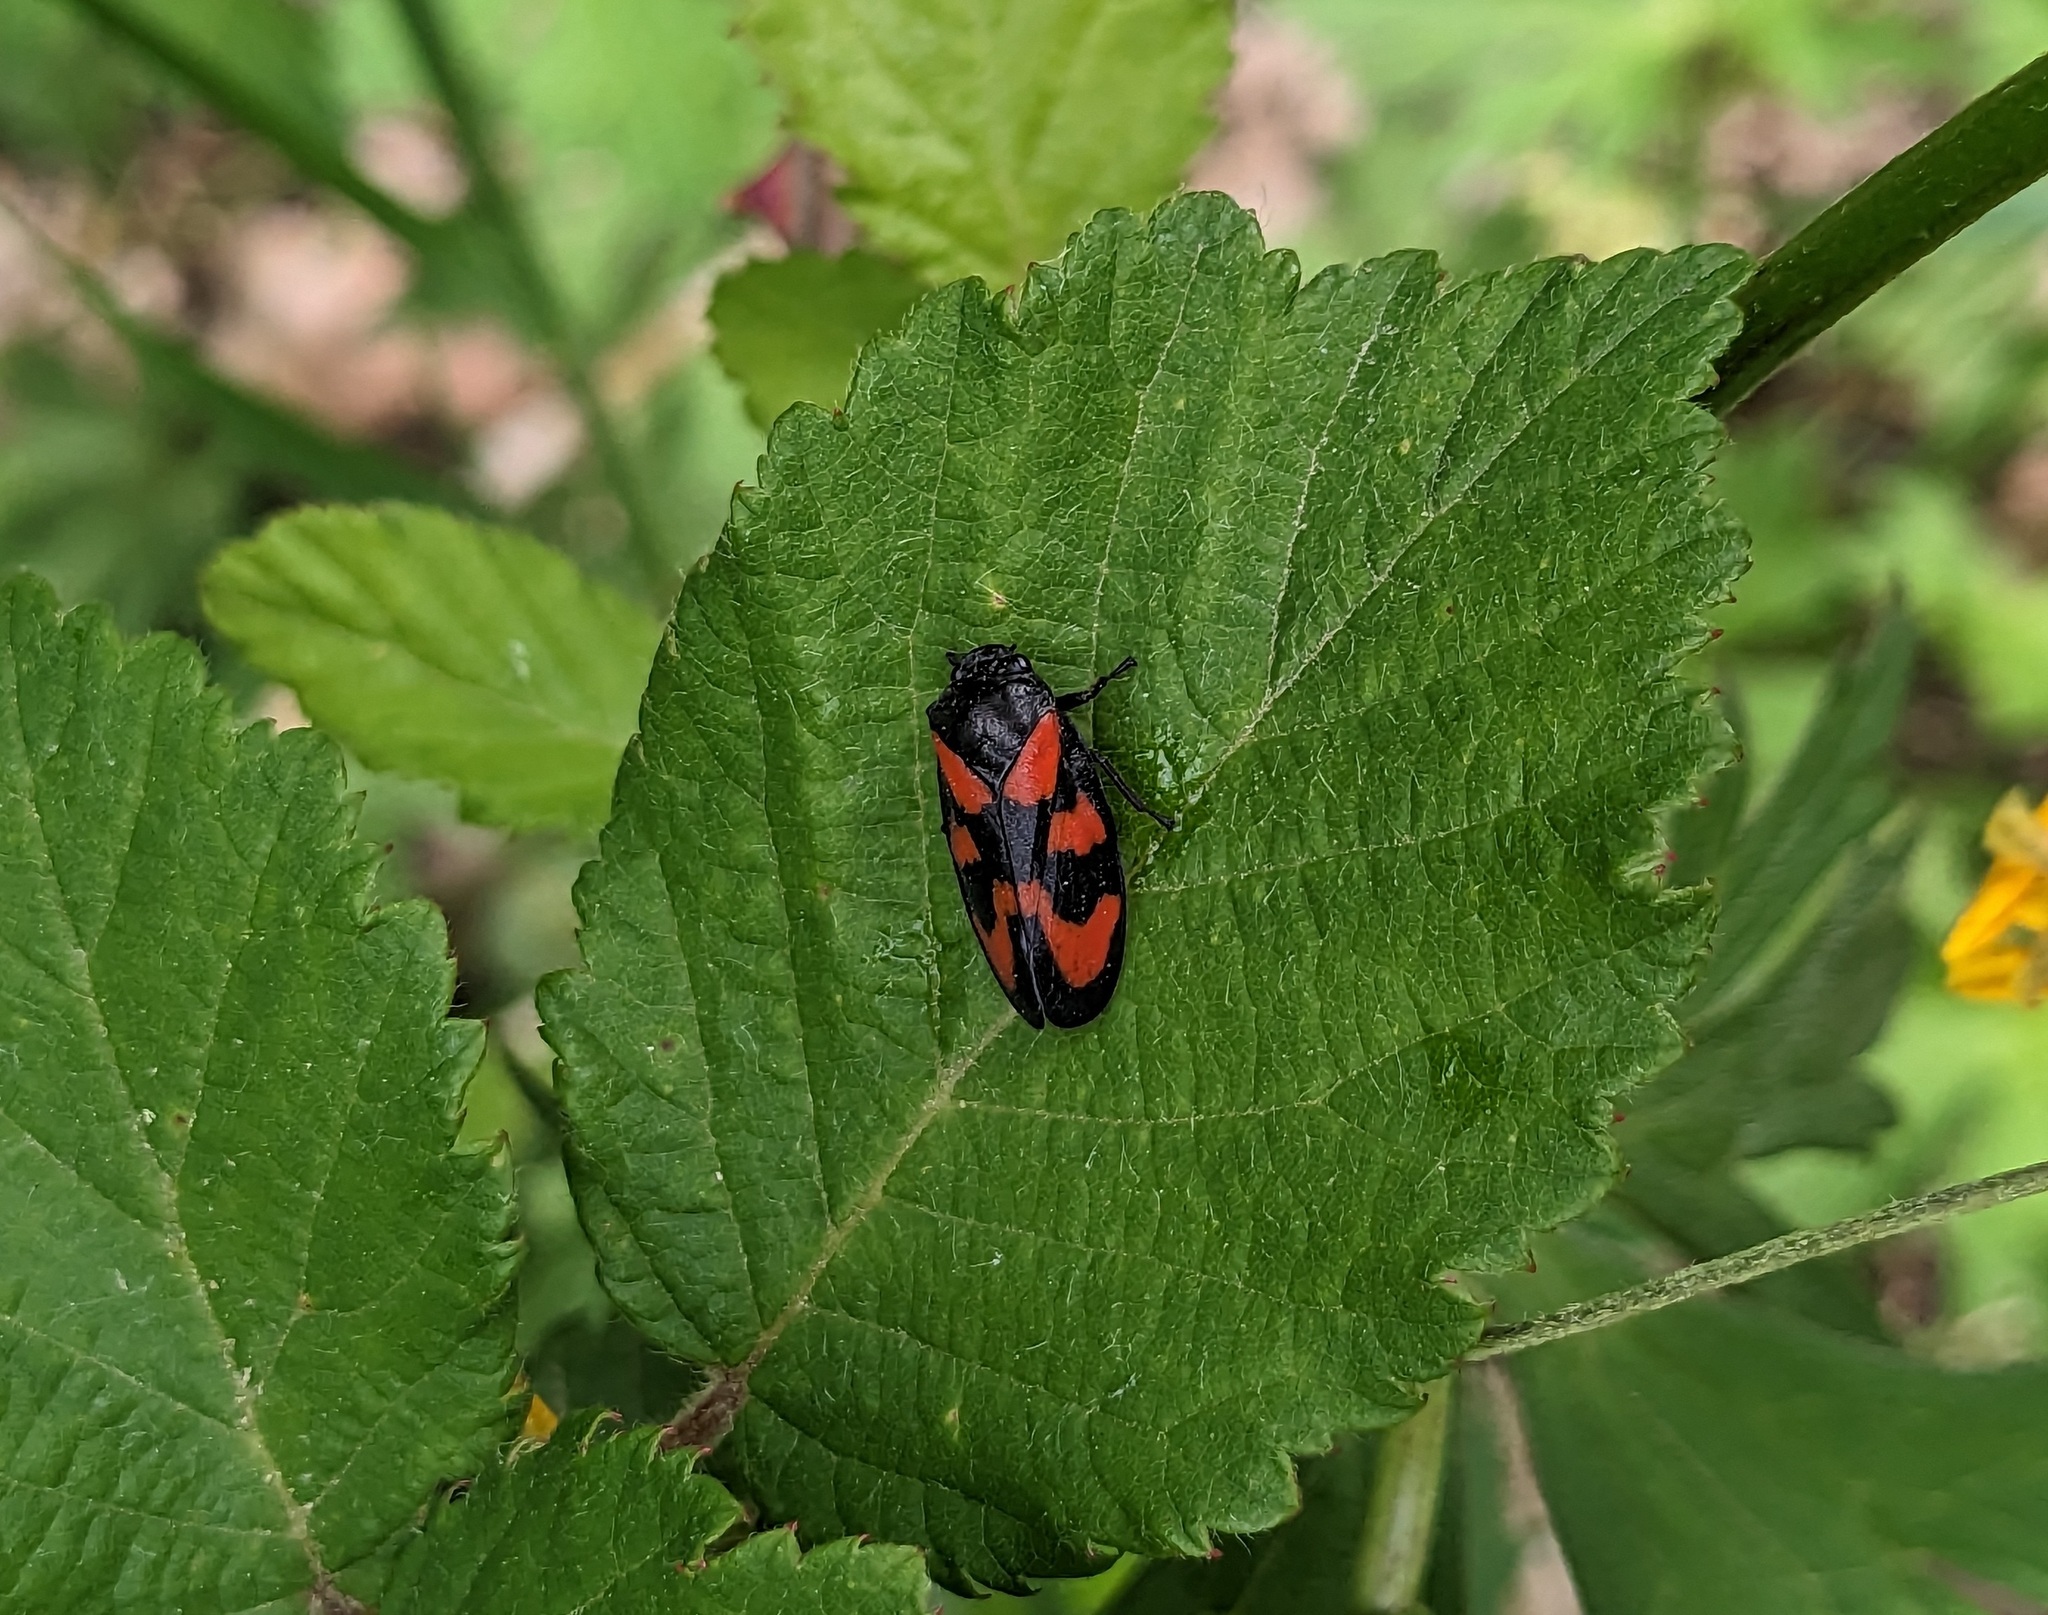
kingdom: Animalia
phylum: Arthropoda
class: Insecta
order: Hemiptera
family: Cercopidae
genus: Cercopis
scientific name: Cercopis vulnerata
